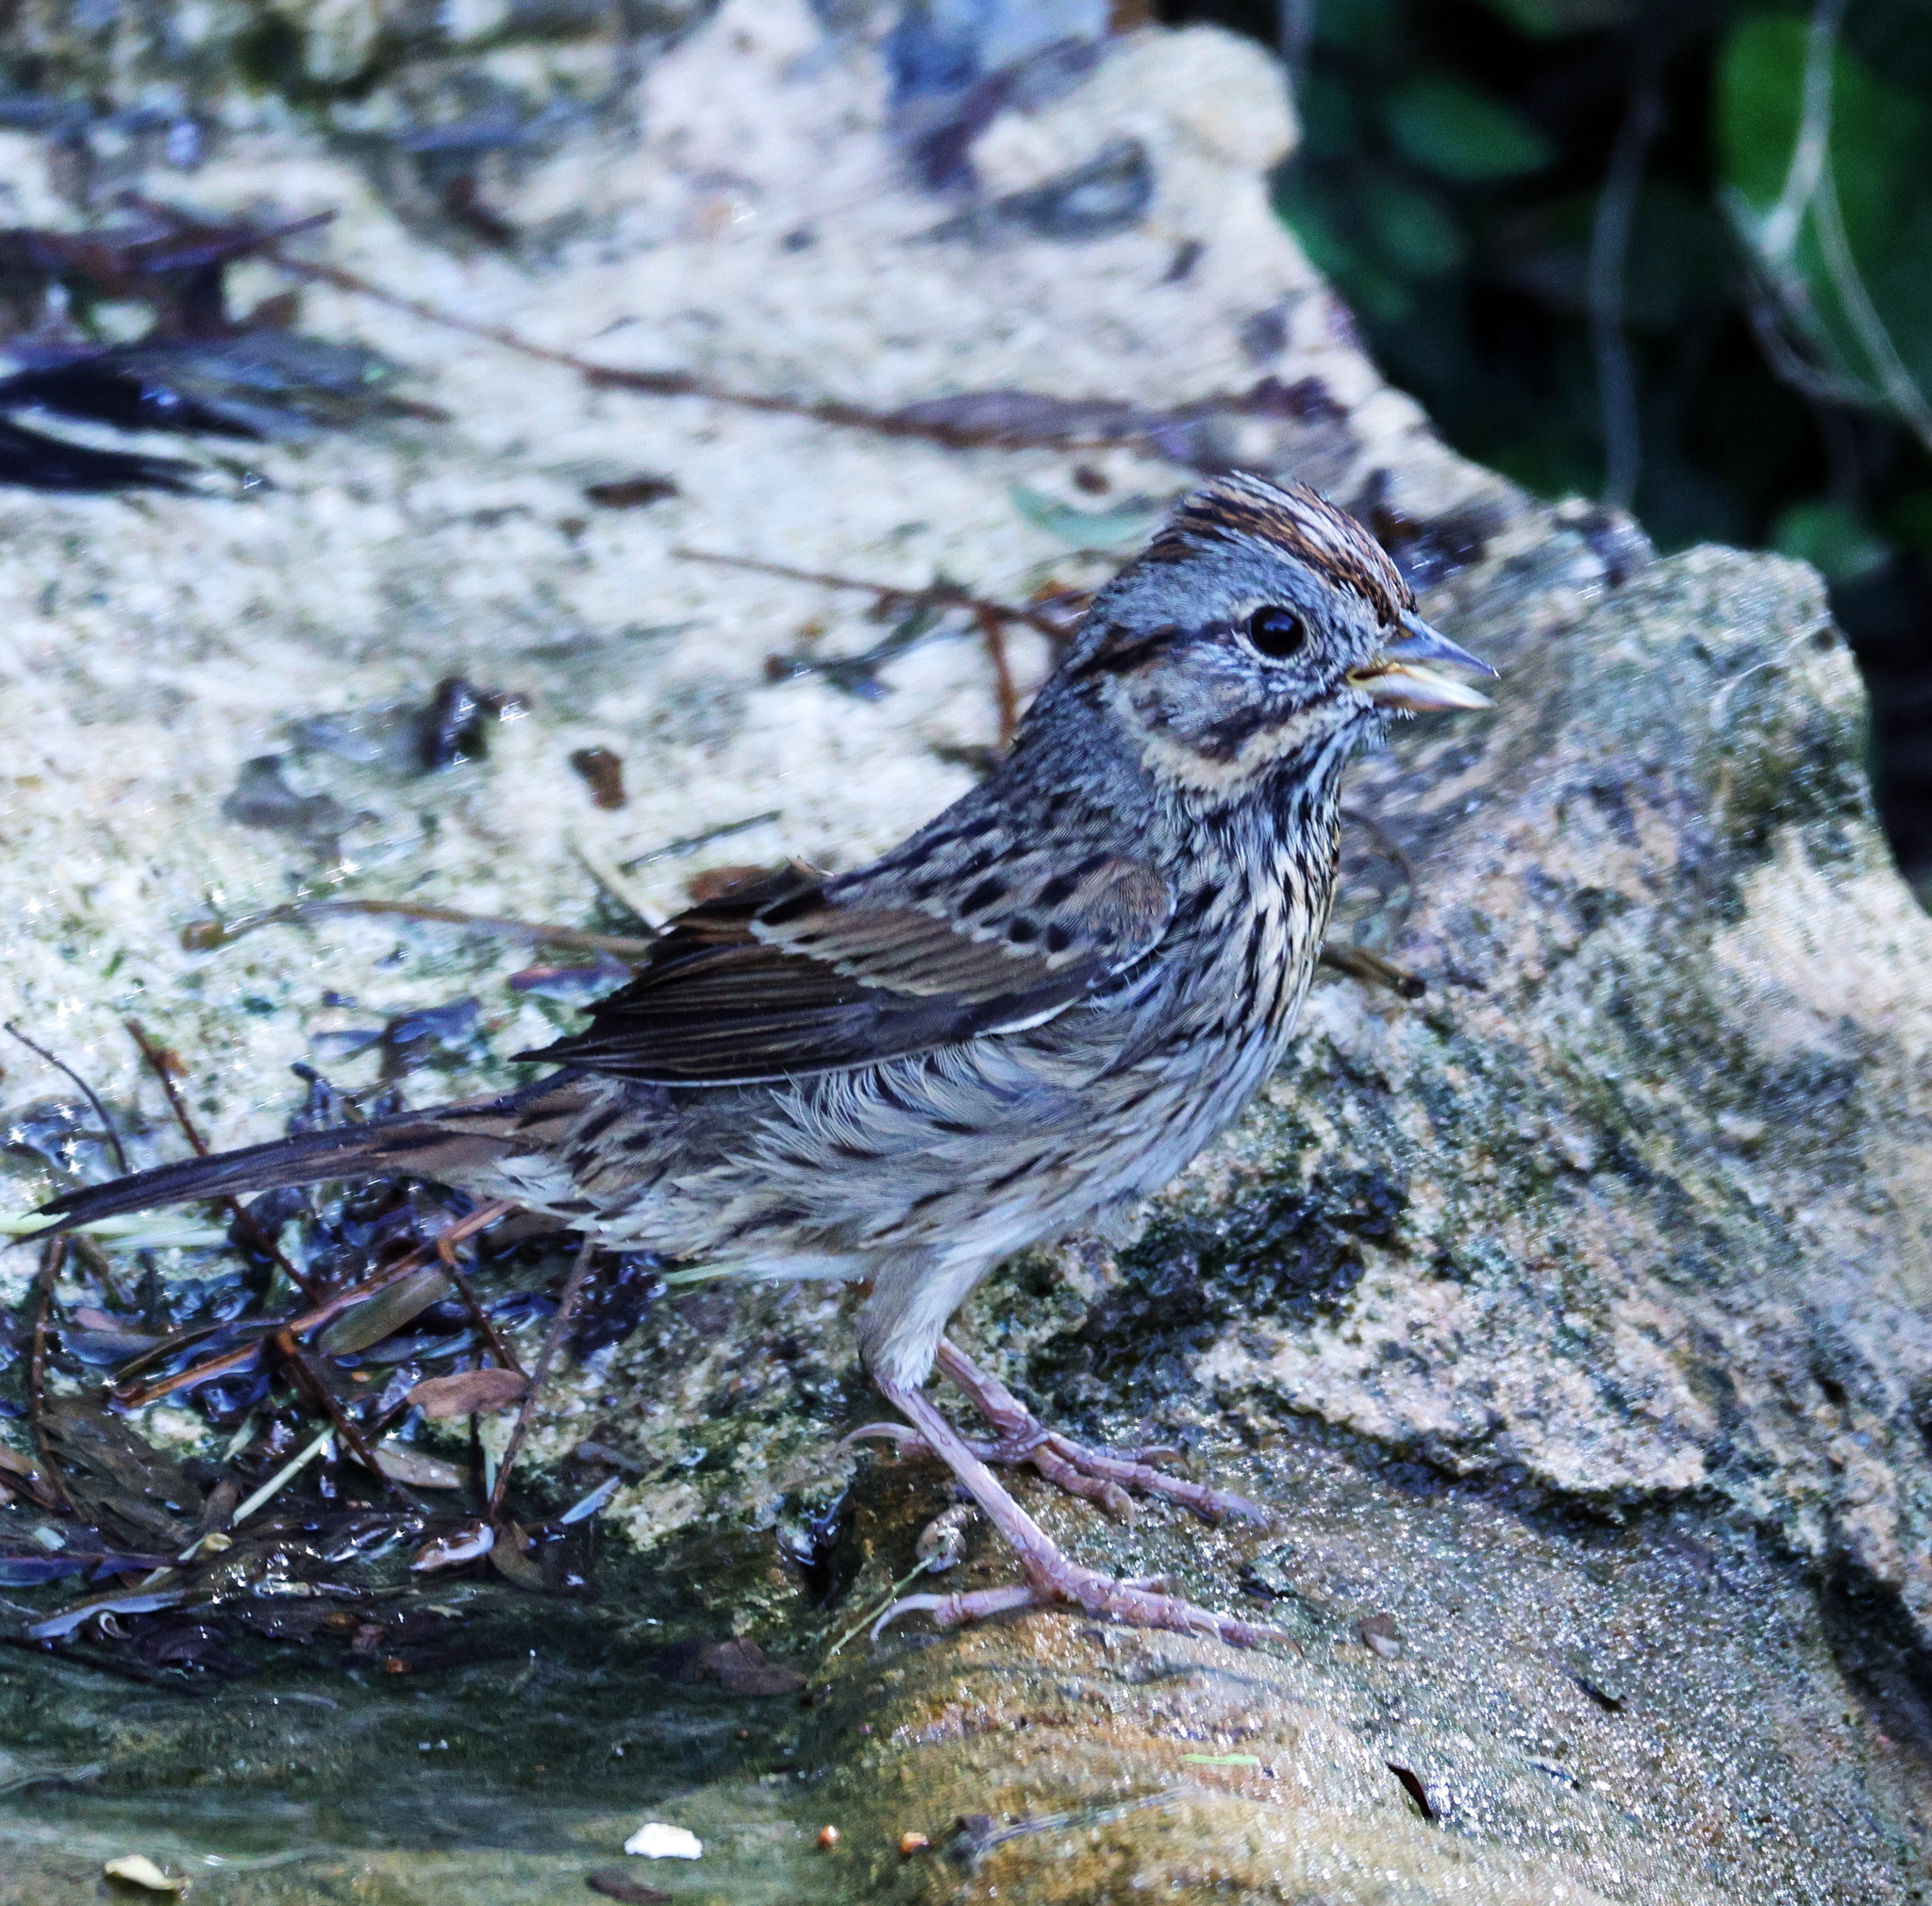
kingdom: Animalia
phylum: Chordata
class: Aves
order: Passeriformes
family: Passerellidae
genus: Melospiza
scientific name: Melospiza lincolnii
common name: Lincoln's sparrow
